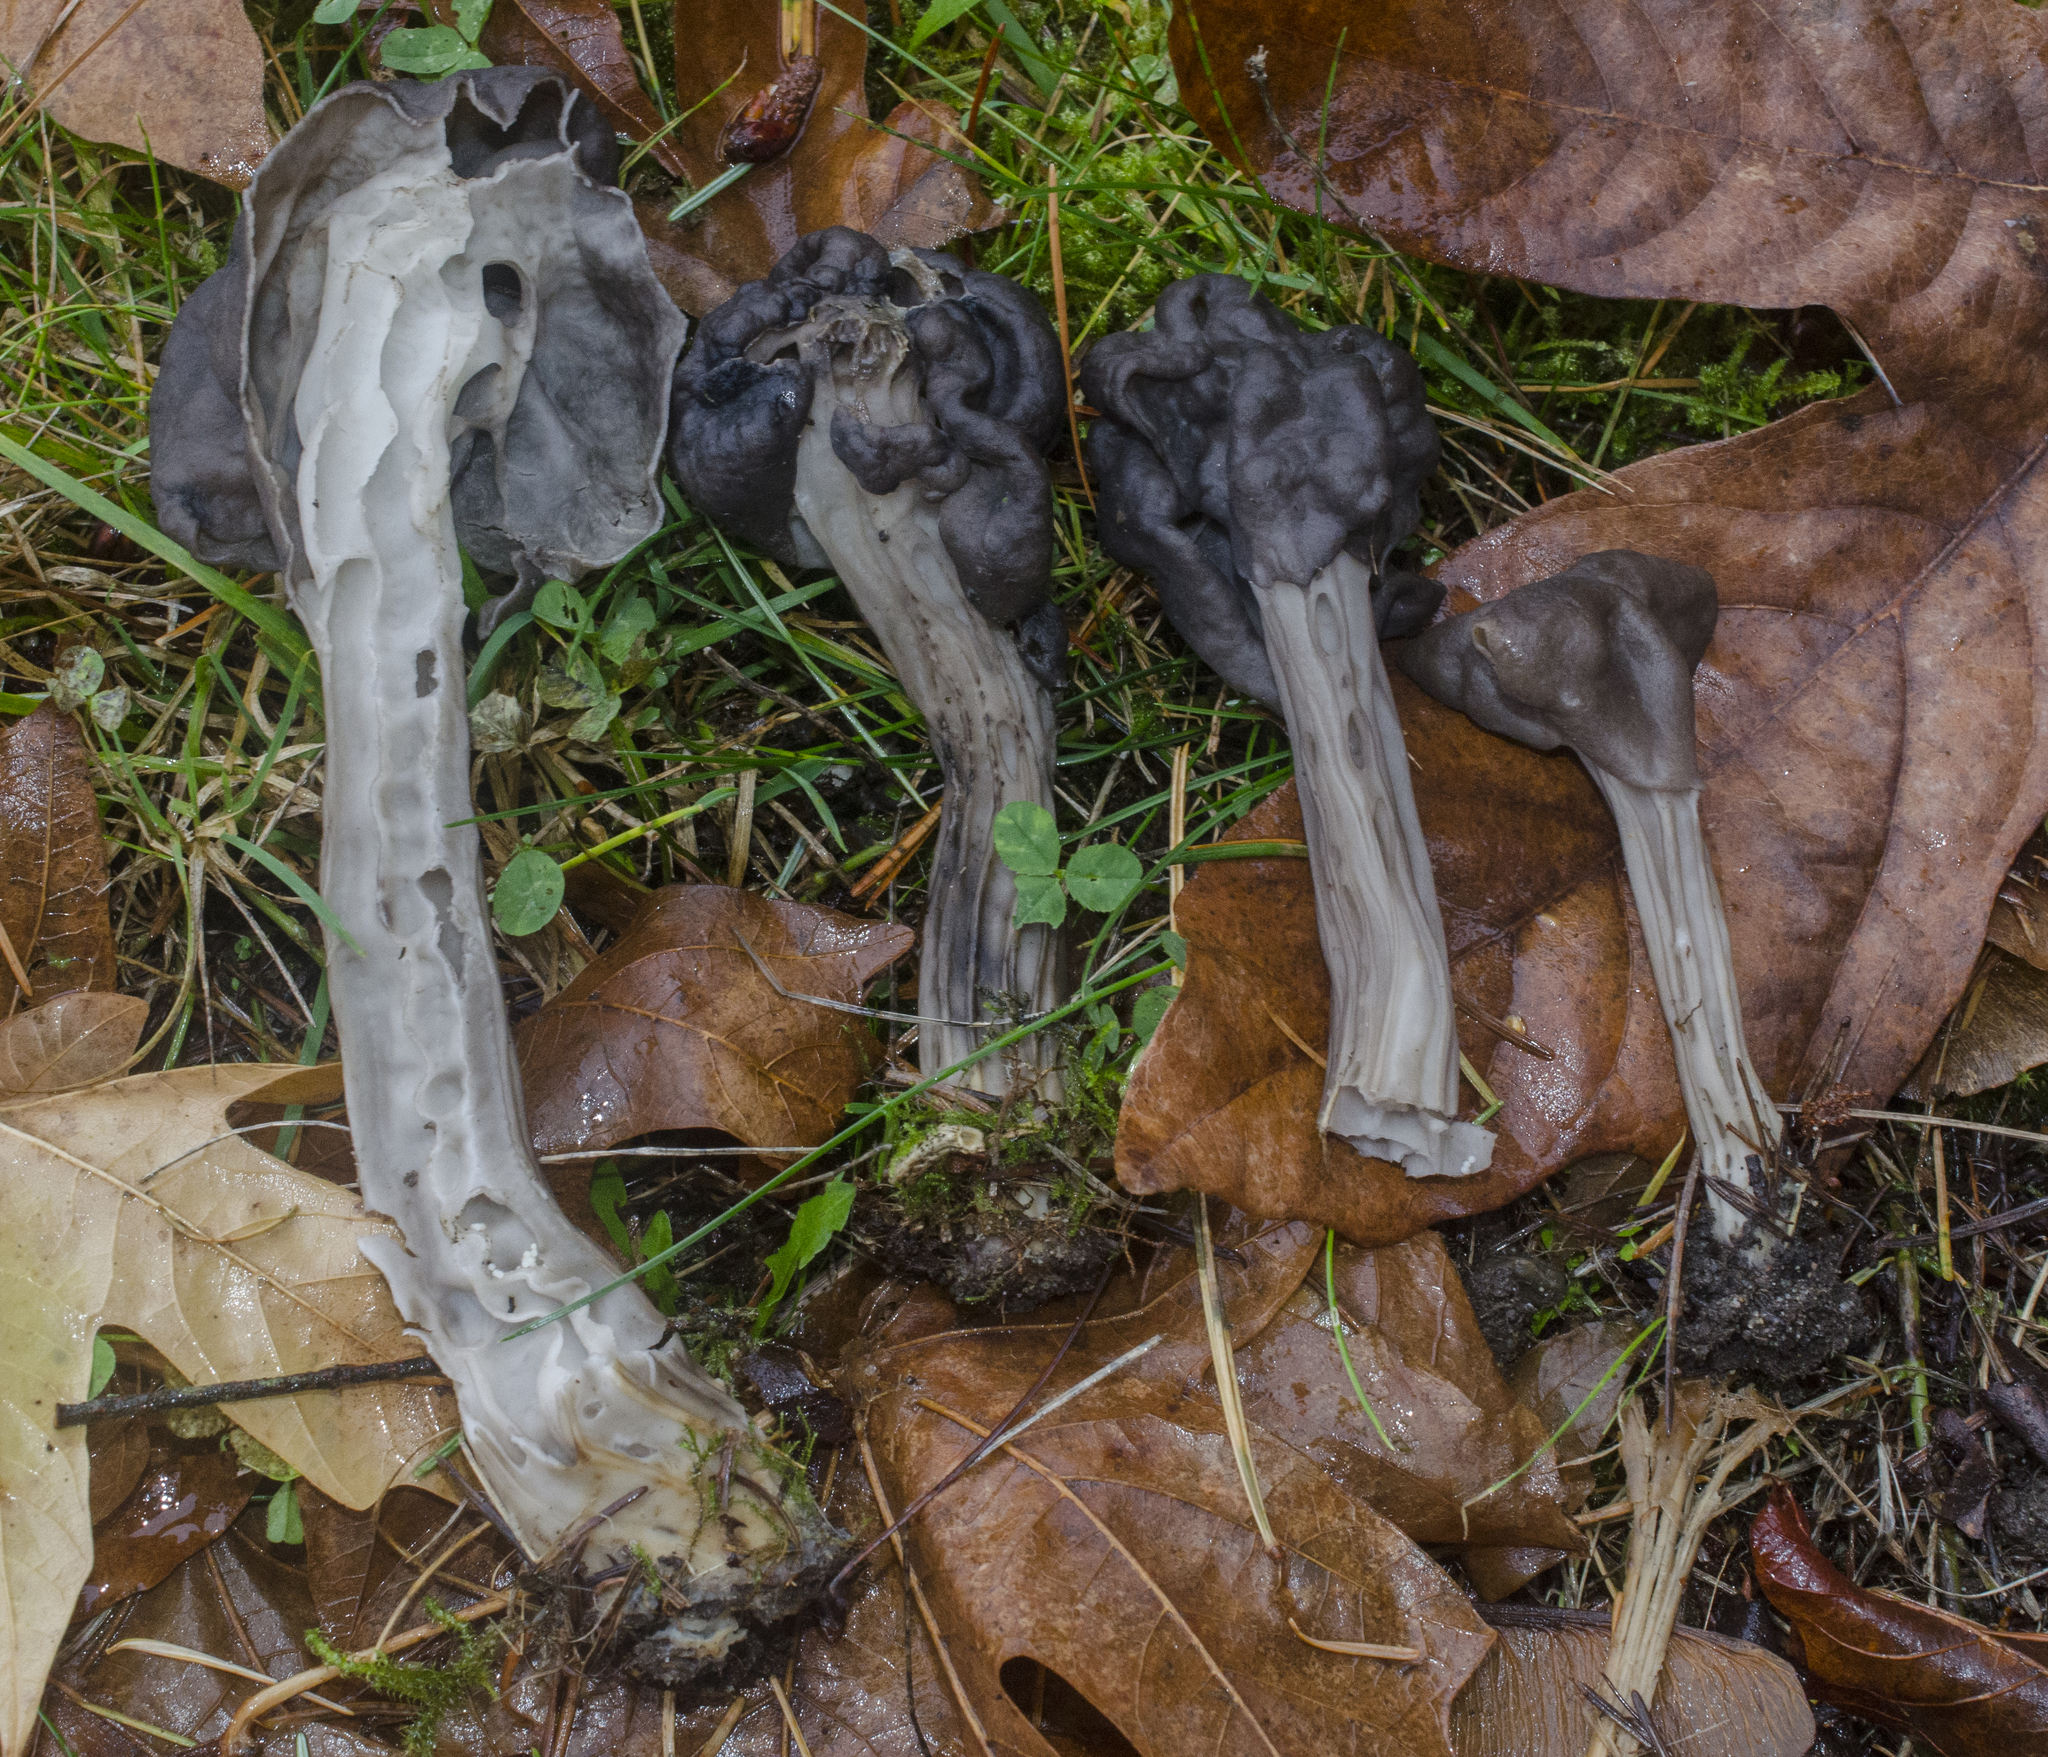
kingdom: Fungi
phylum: Ascomycota
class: Pezizomycetes
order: Pezizales
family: Helvellaceae
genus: Helvella
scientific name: Helvella vespertina
